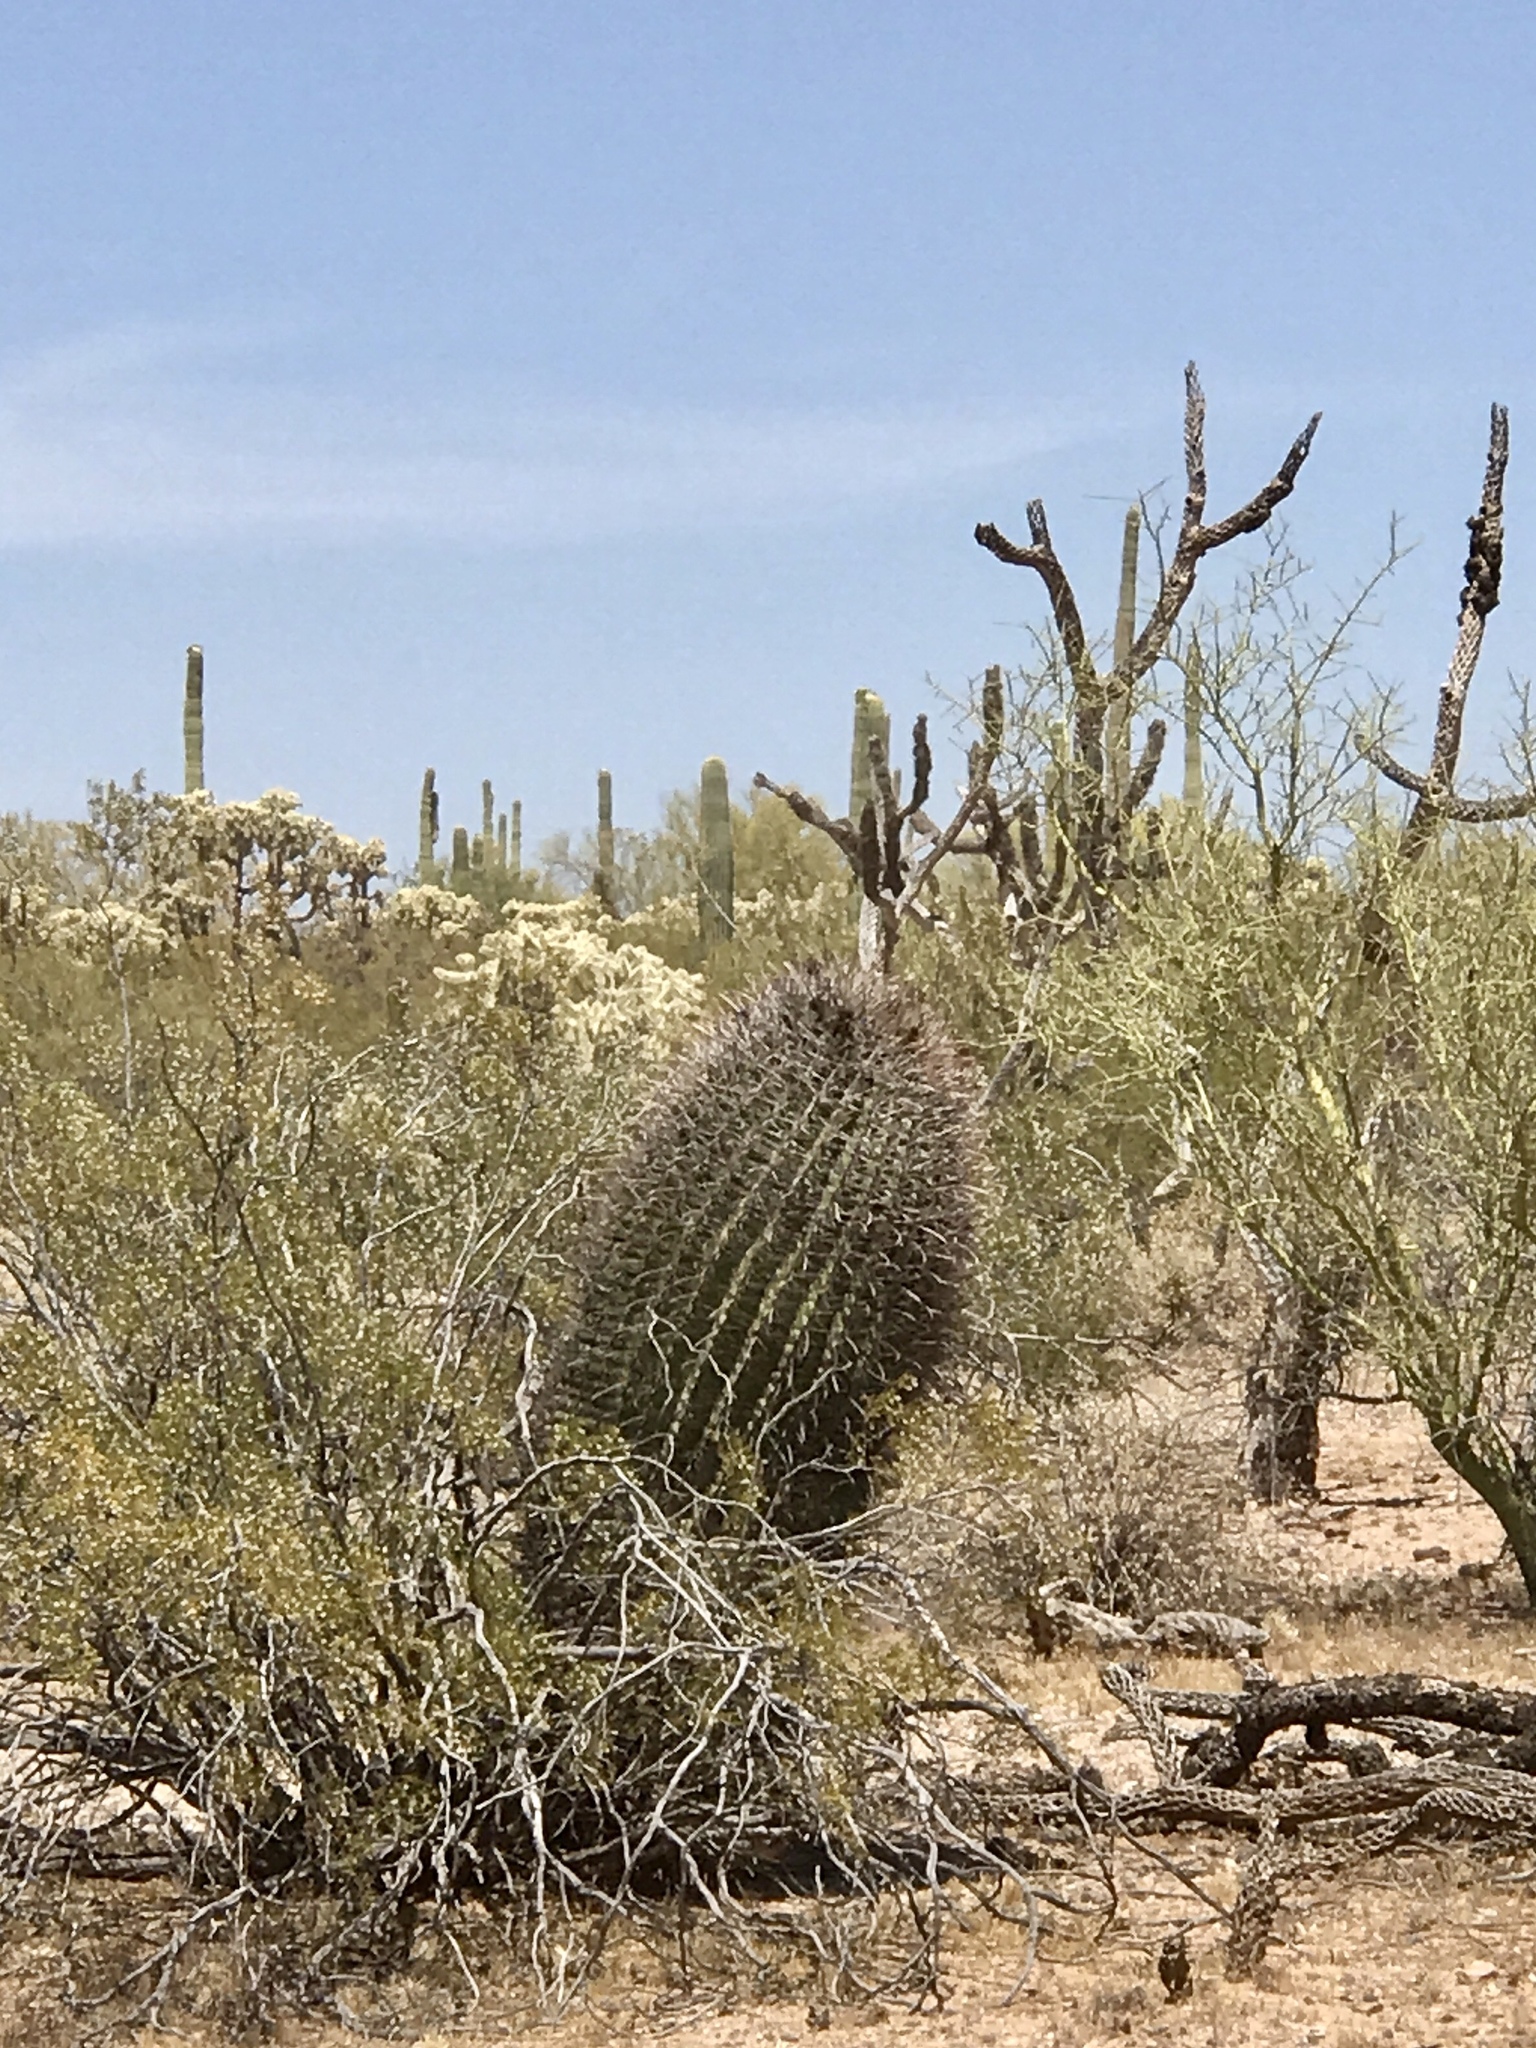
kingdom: Plantae
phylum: Tracheophyta
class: Magnoliopsida
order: Caryophyllales
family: Cactaceae
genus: Ferocactus
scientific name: Ferocactus wislizeni
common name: Candy barrel cactus
